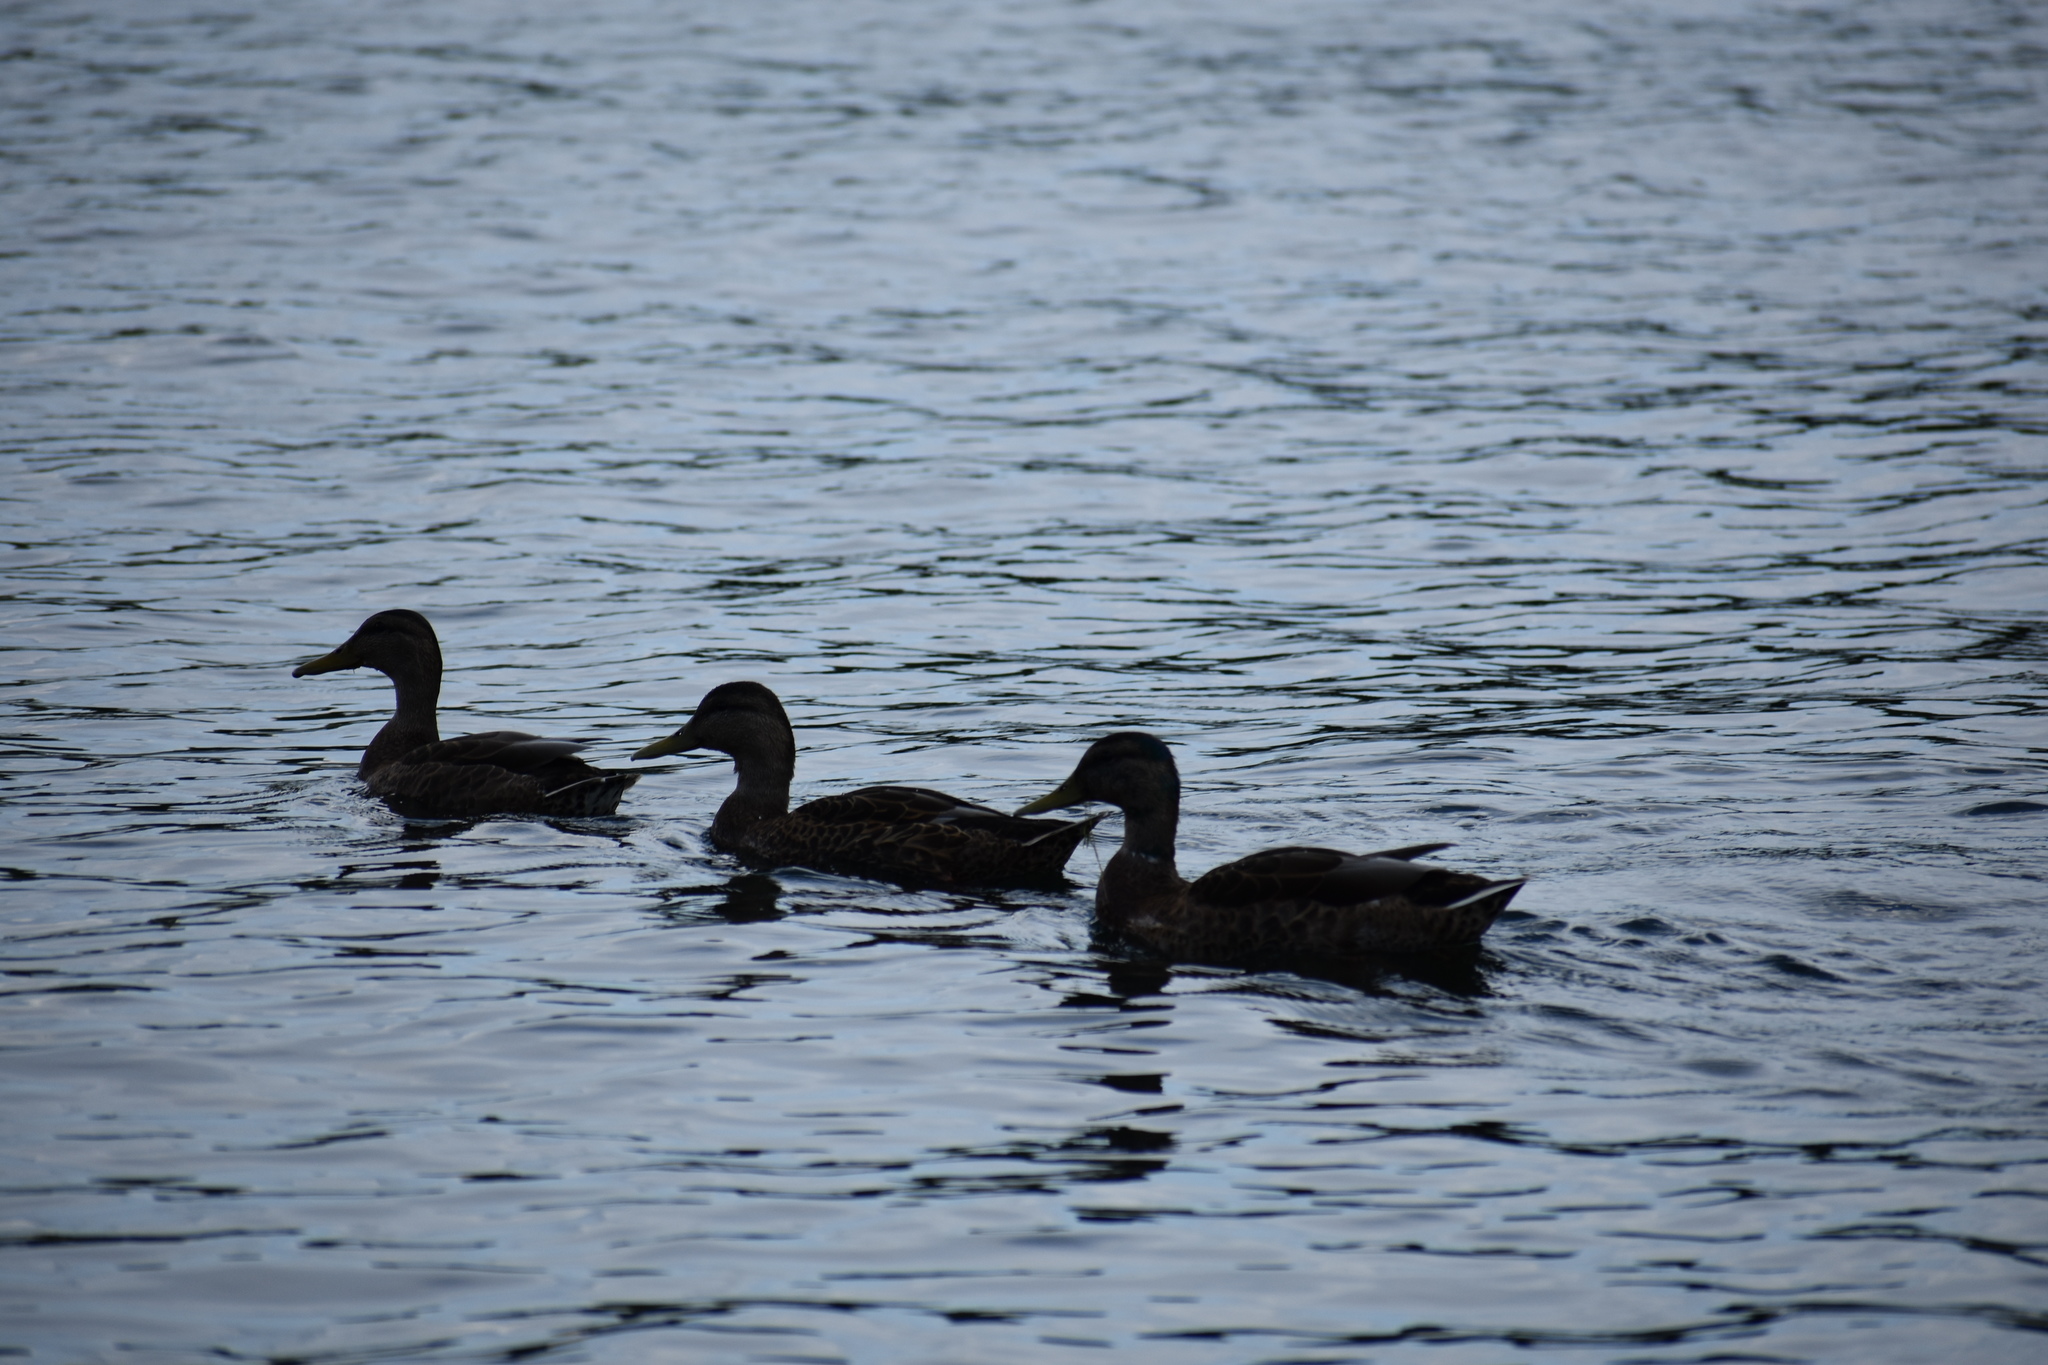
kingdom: Animalia
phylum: Chordata
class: Aves
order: Anseriformes
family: Anatidae
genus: Anas
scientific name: Anas platyrhynchos
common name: Mallard
